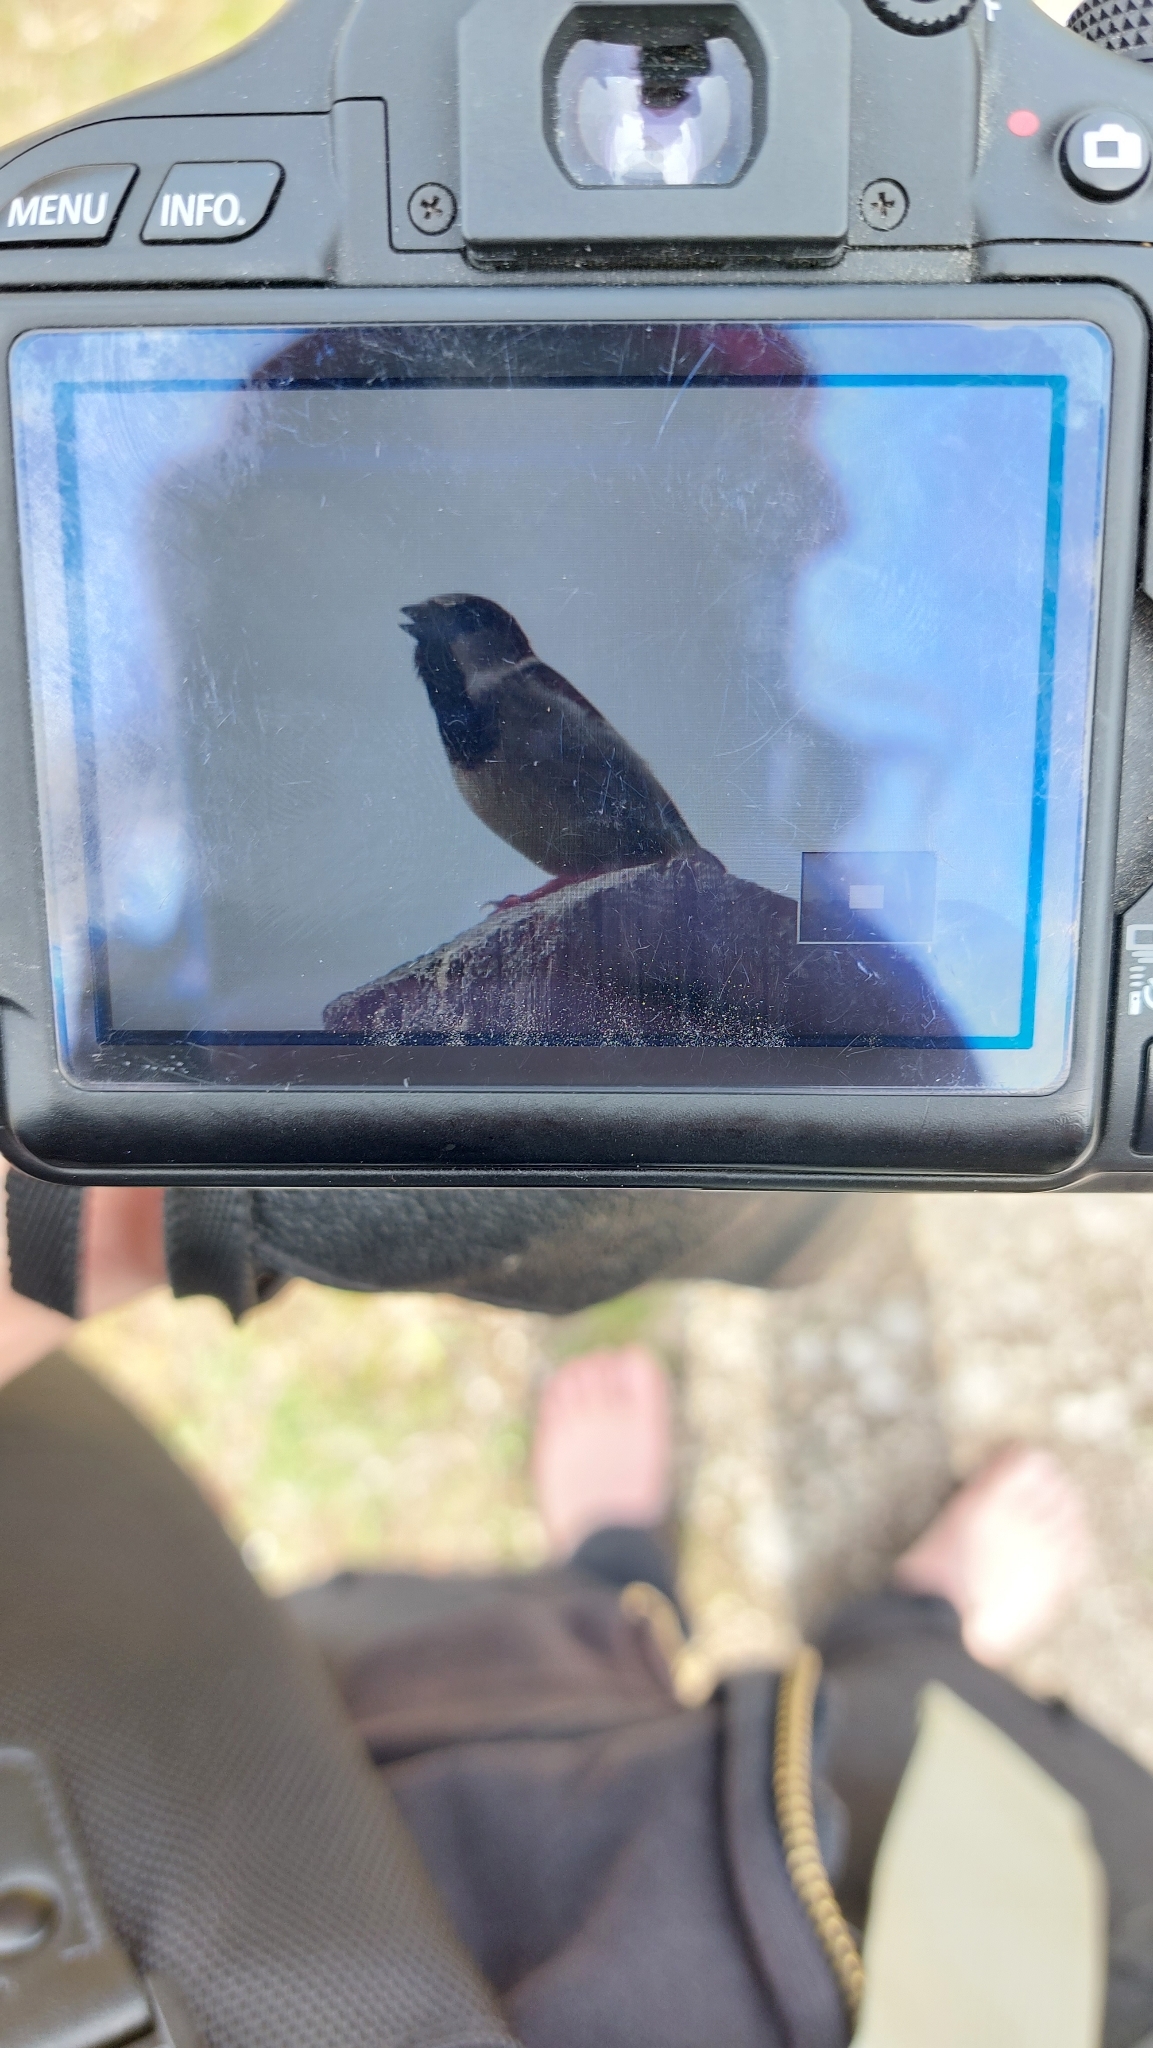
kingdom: Animalia
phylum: Chordata
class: Aves
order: Passeriformes
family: Passeridae
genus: Passer
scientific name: Passer domesticus
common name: House sparrow
